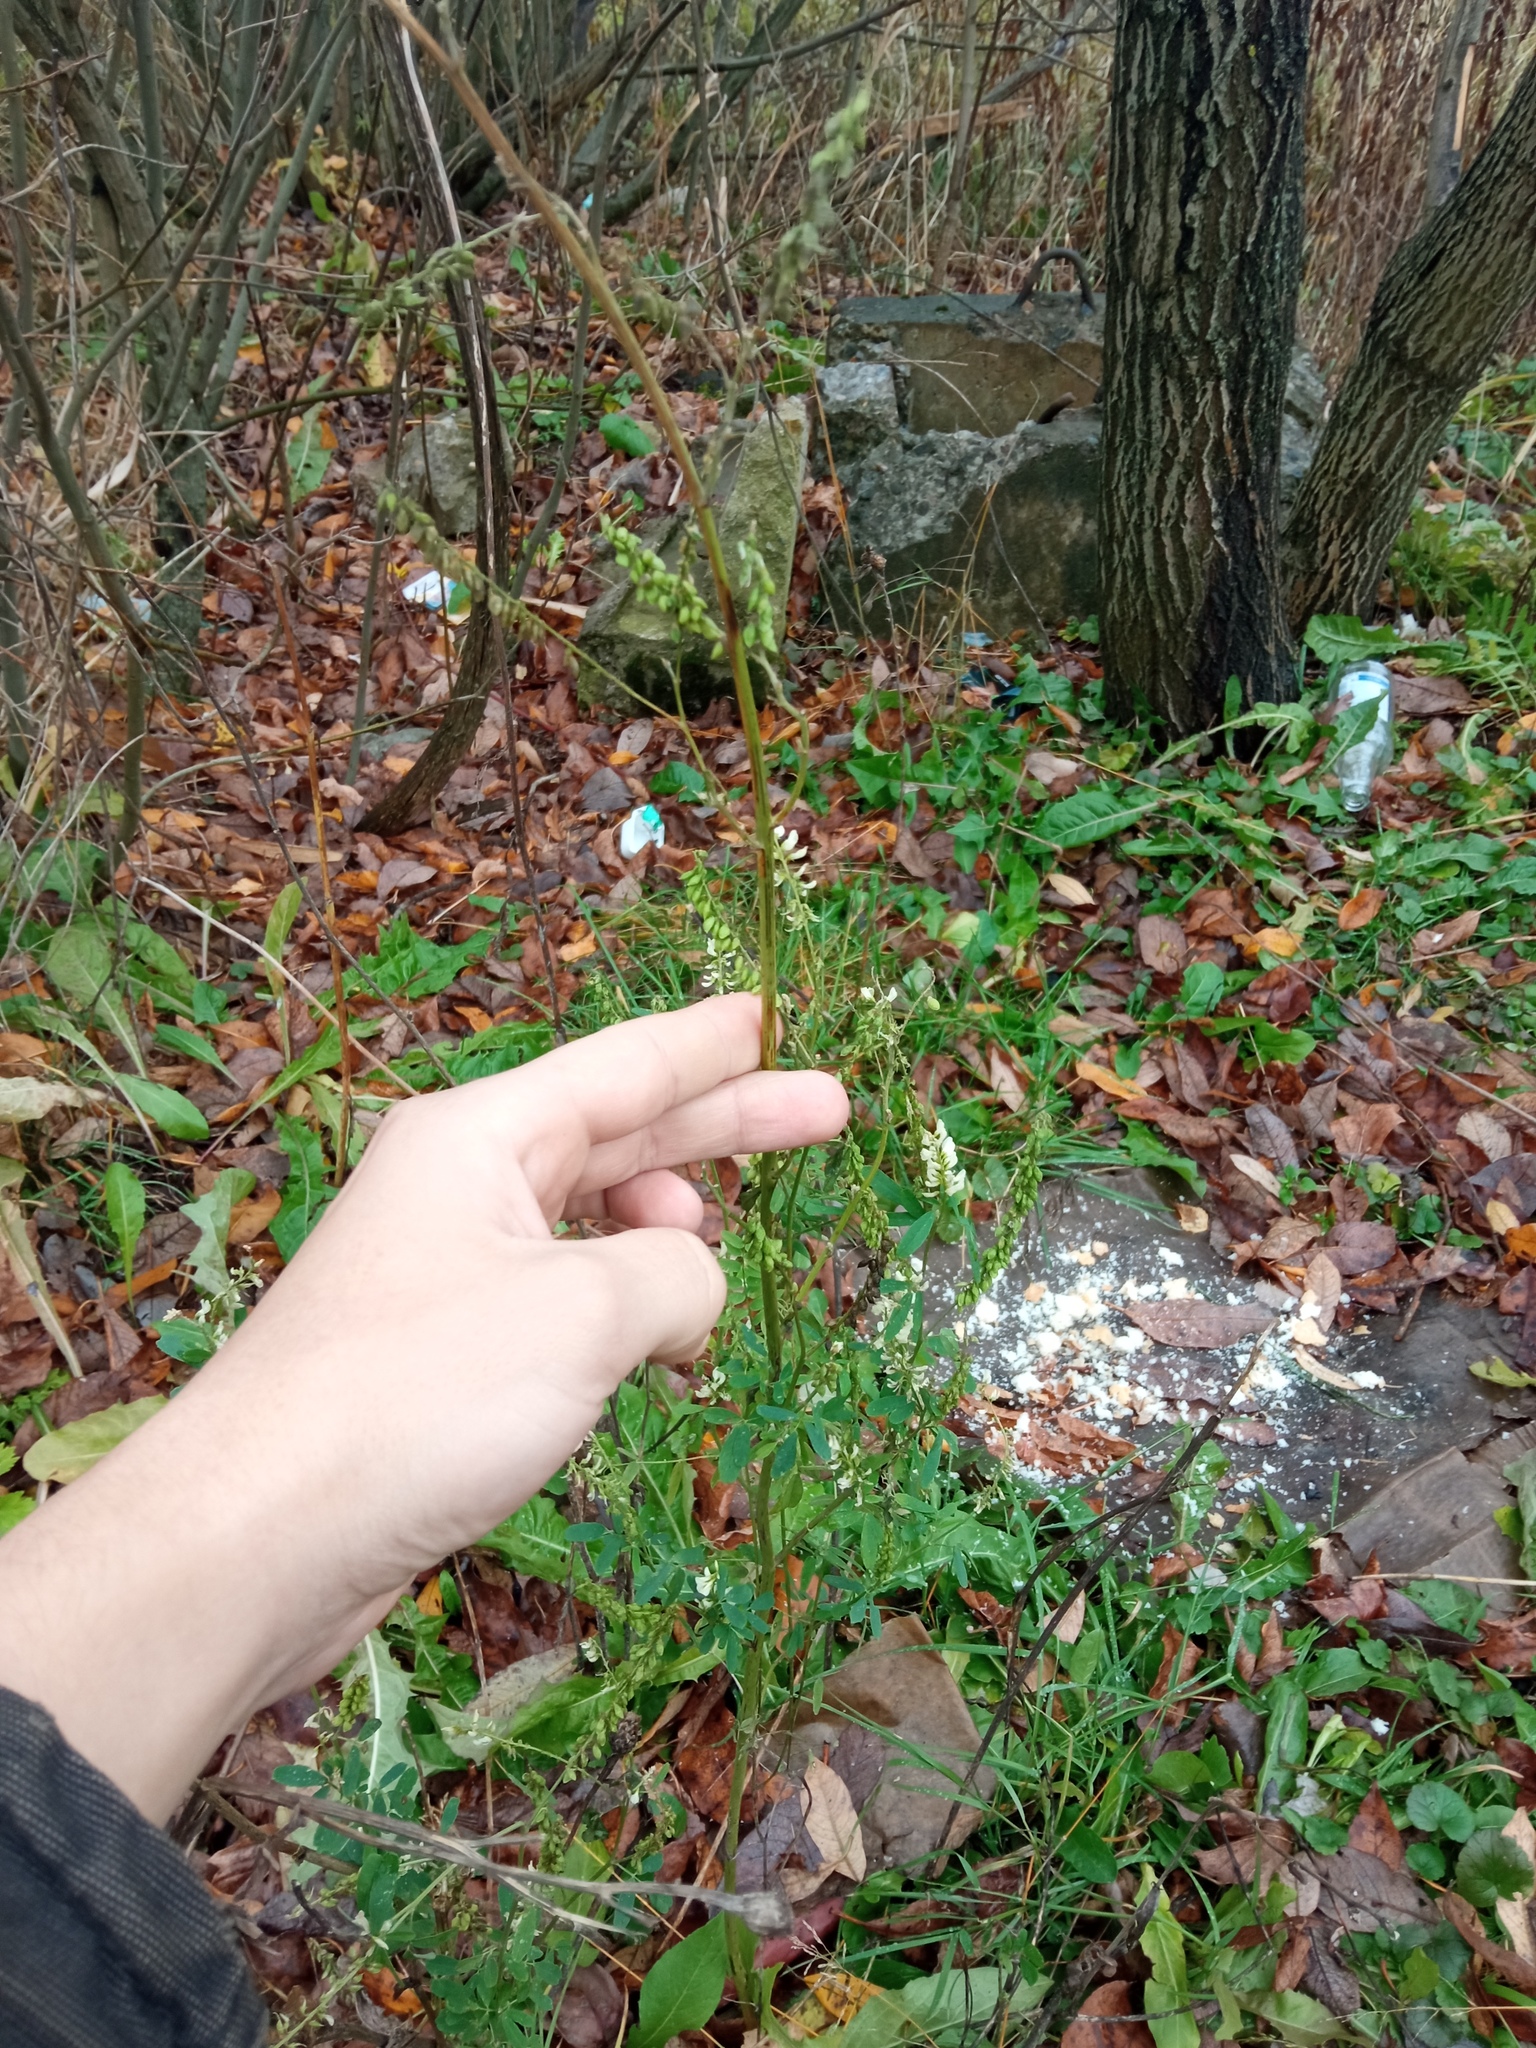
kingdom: Plantae
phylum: Tracheophyta
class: Magnoliopsida
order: Fabales
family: Fabaceae
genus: Melilotus
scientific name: Melilotus albus
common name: White melilot
